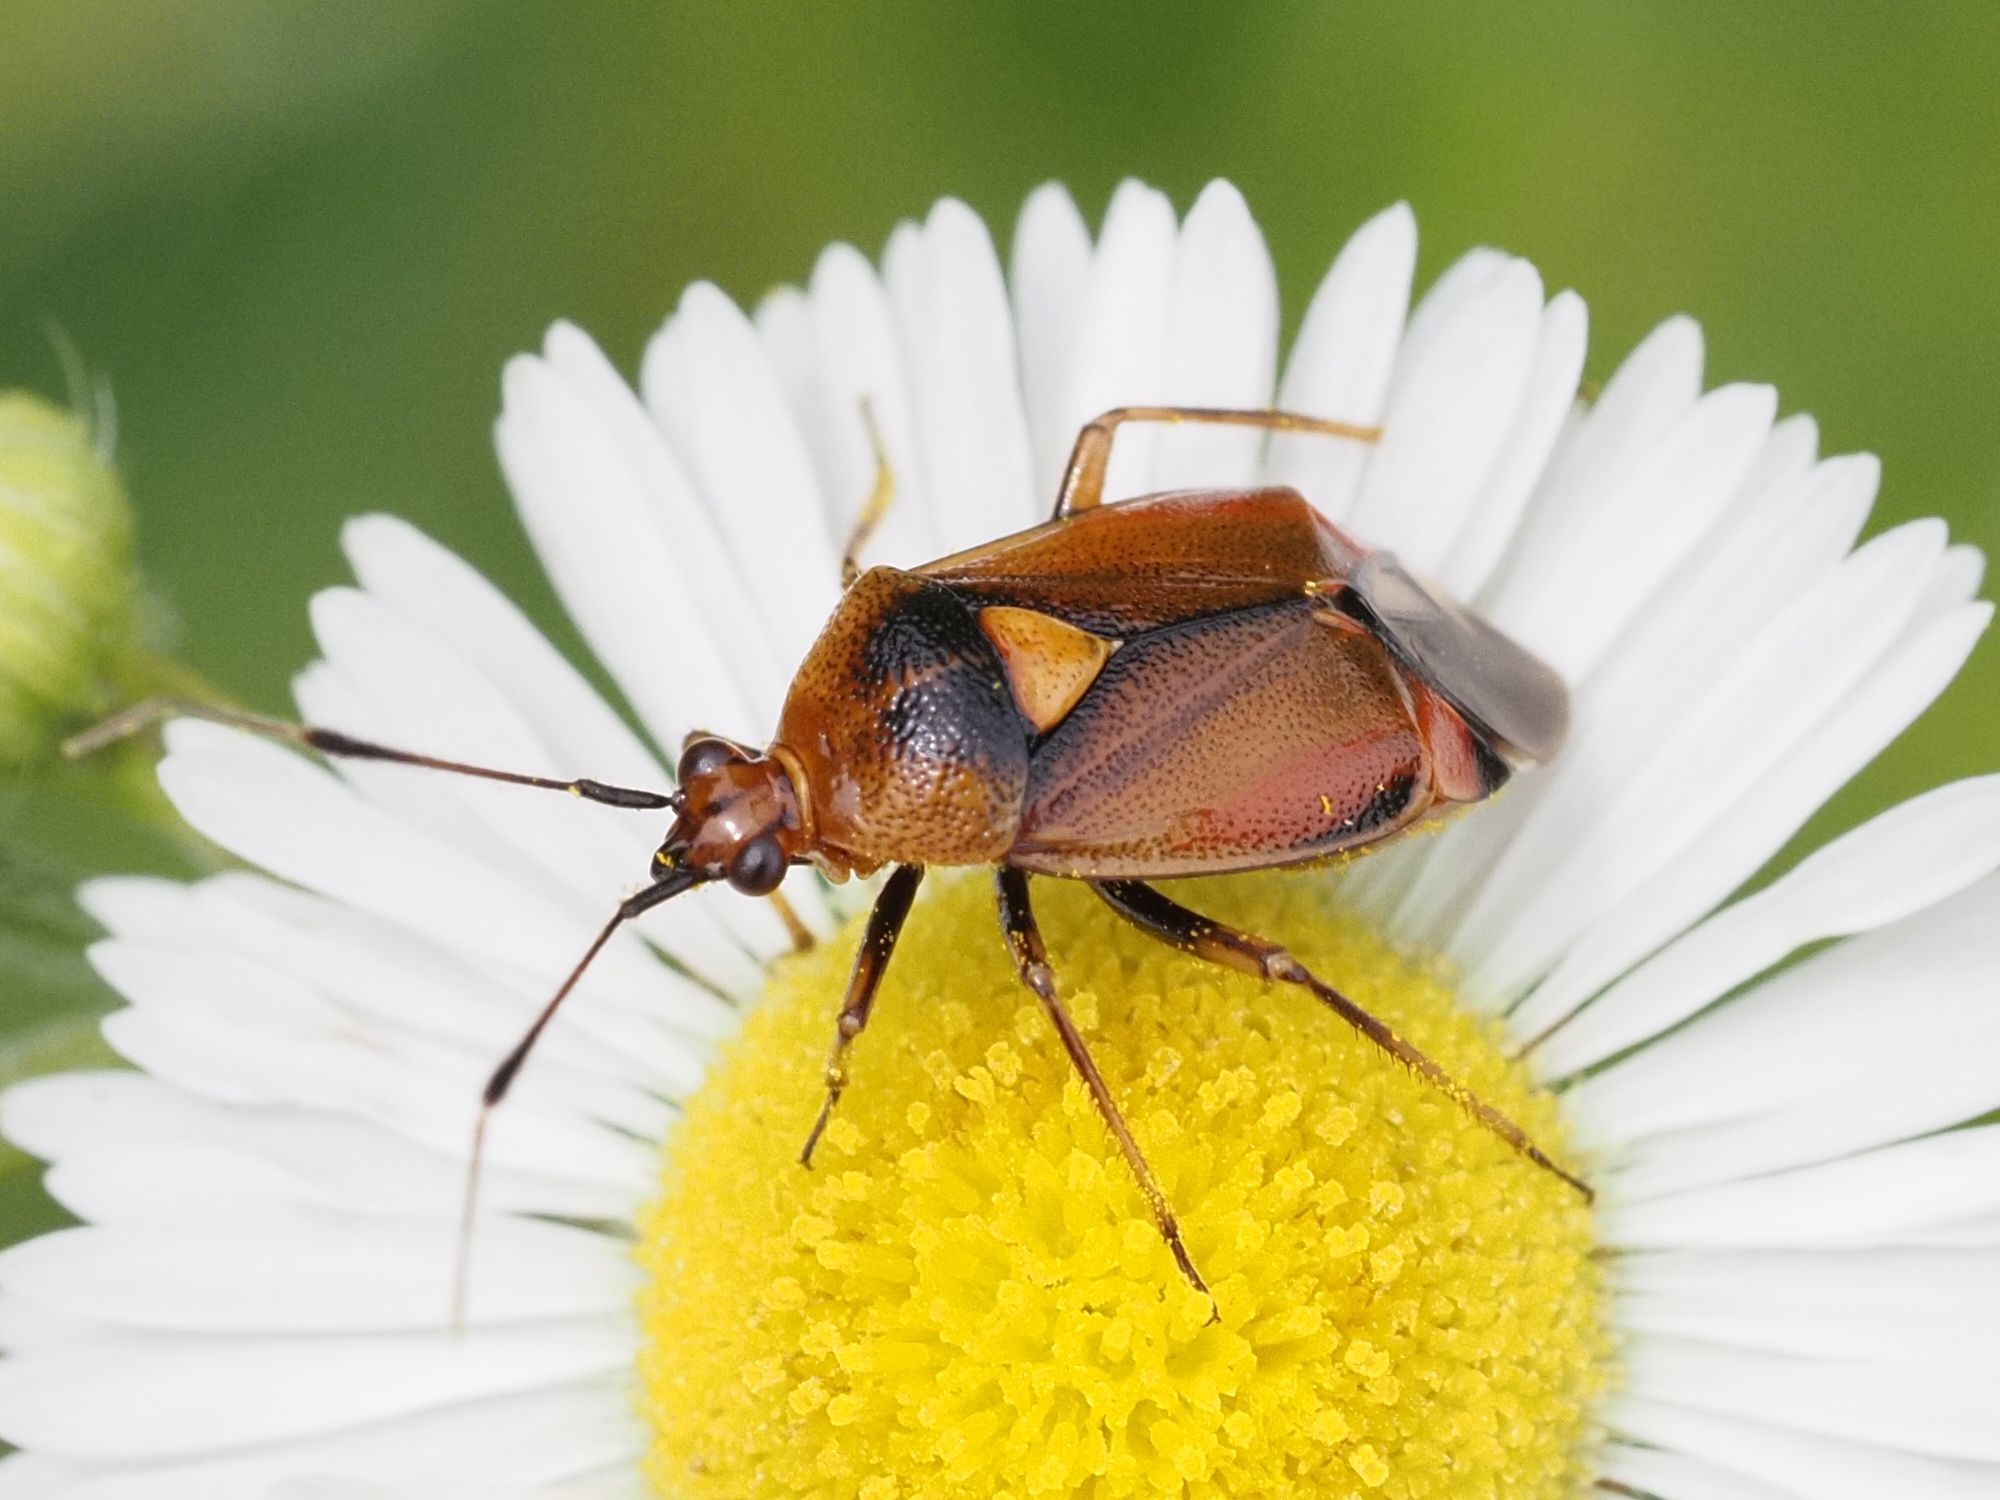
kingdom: Animalia
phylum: Arthropoda
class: Insecta
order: Hemiptera
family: Miridae
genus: Deraeocoris
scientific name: Deraeocoris ruber
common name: Plant bug
